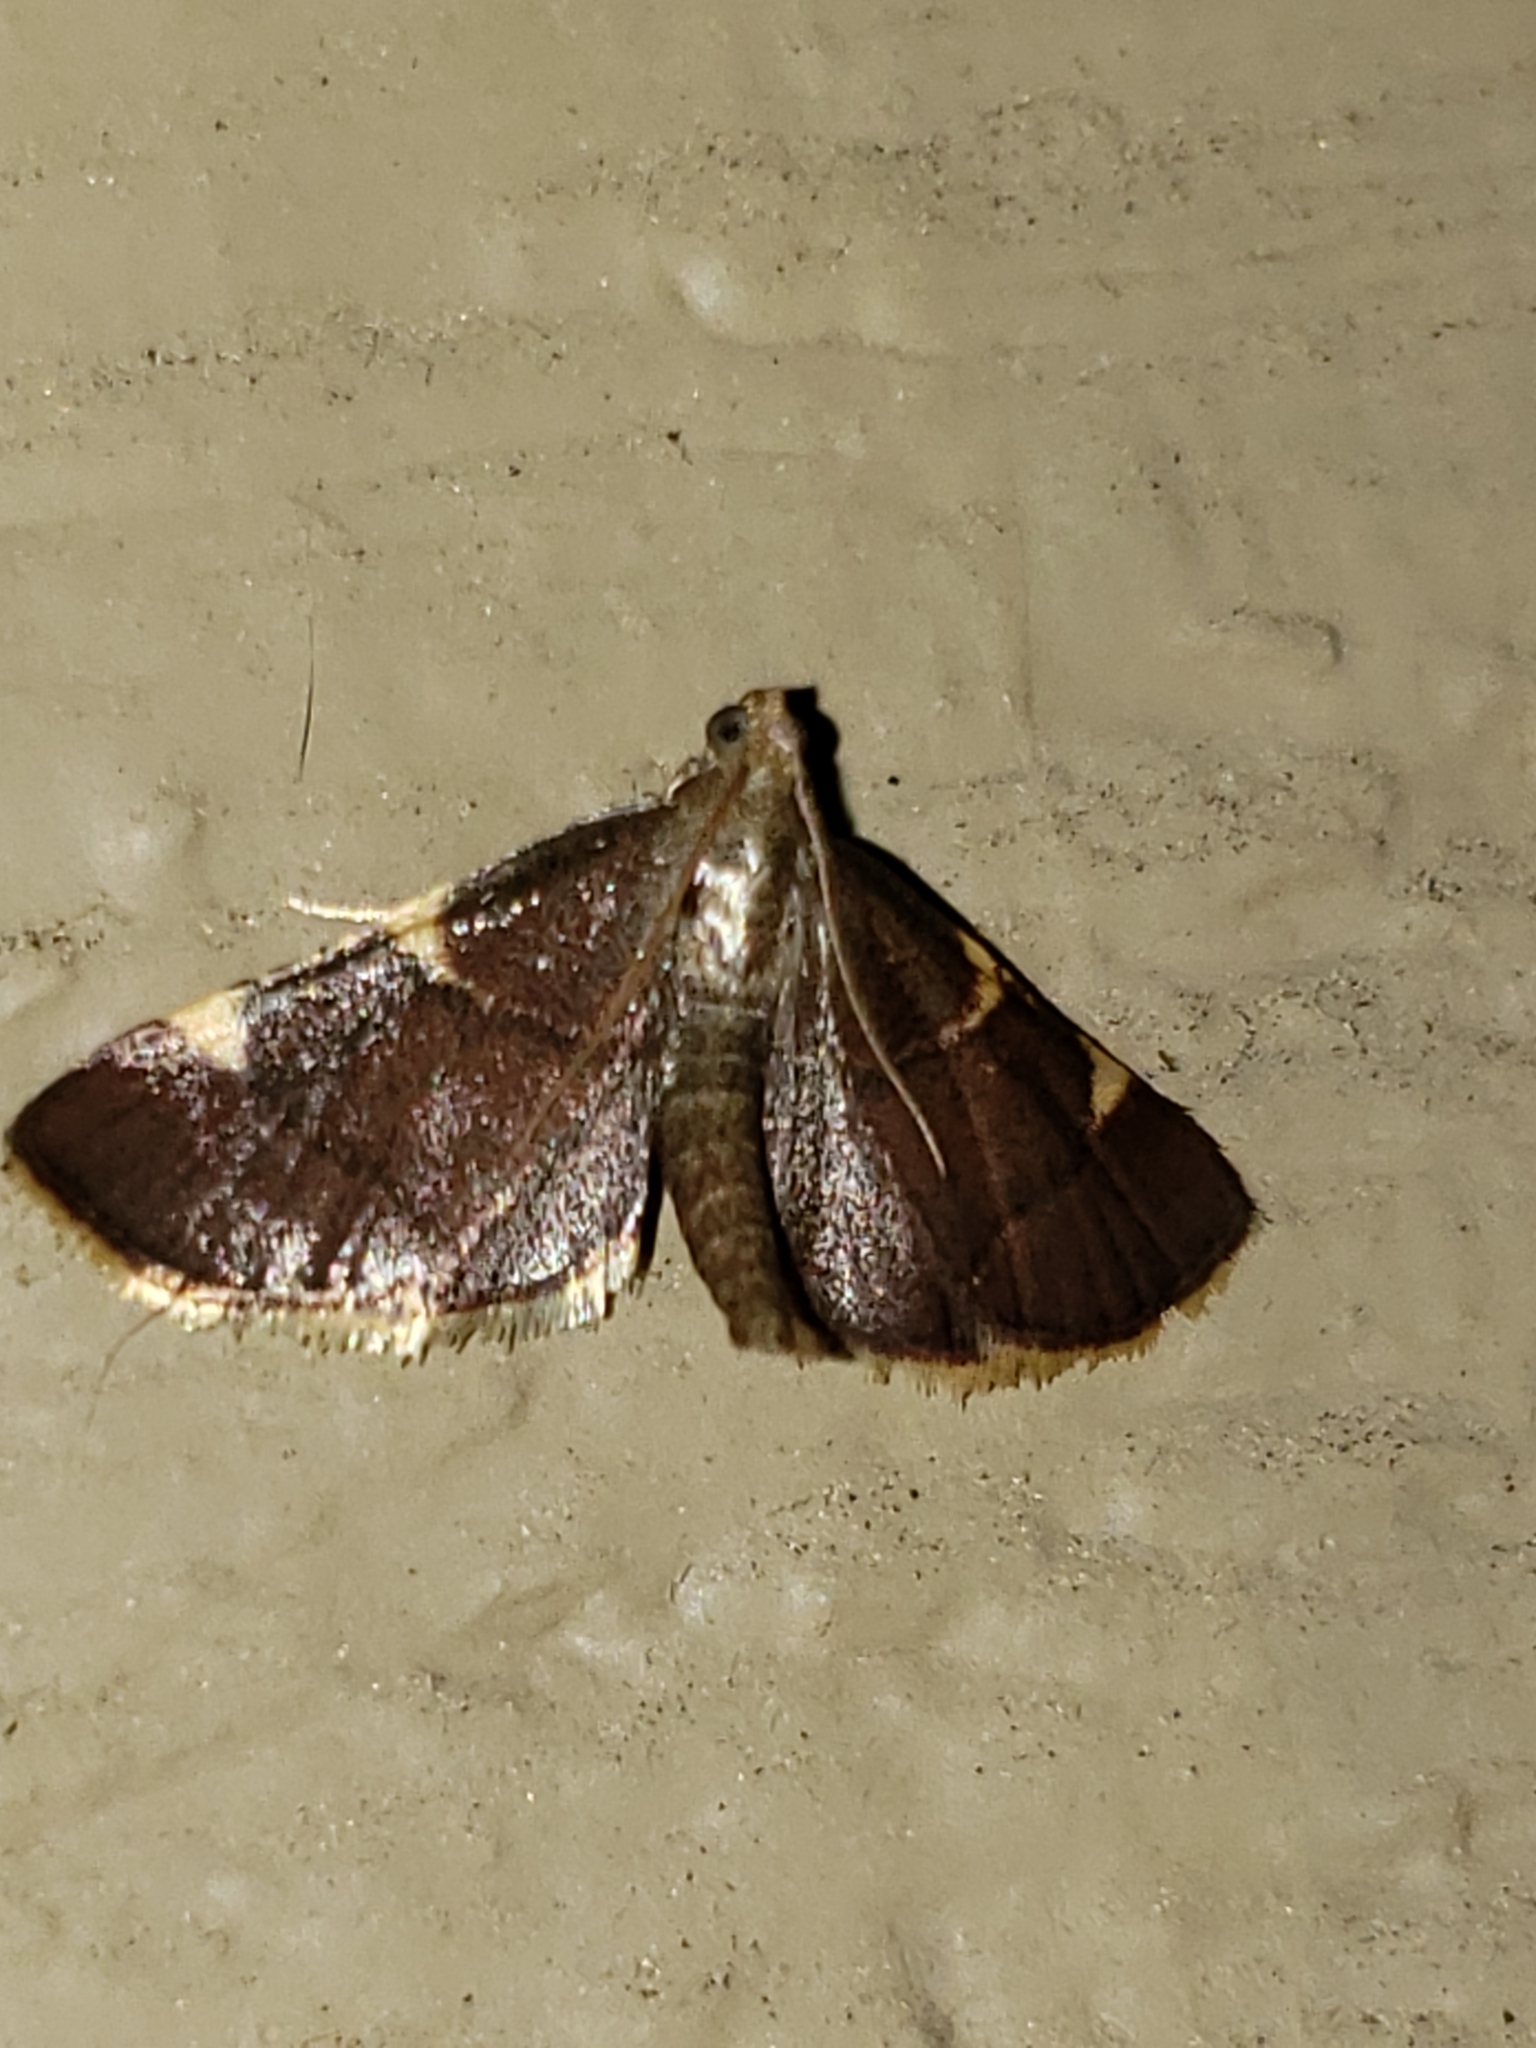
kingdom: Animalia
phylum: Arthropoda
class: Insecta
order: Lepidoptera
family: Pyralidae
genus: Hypsopygia
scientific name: Hypsopygia olinalis
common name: Yellow-fringed dolichomia moth
